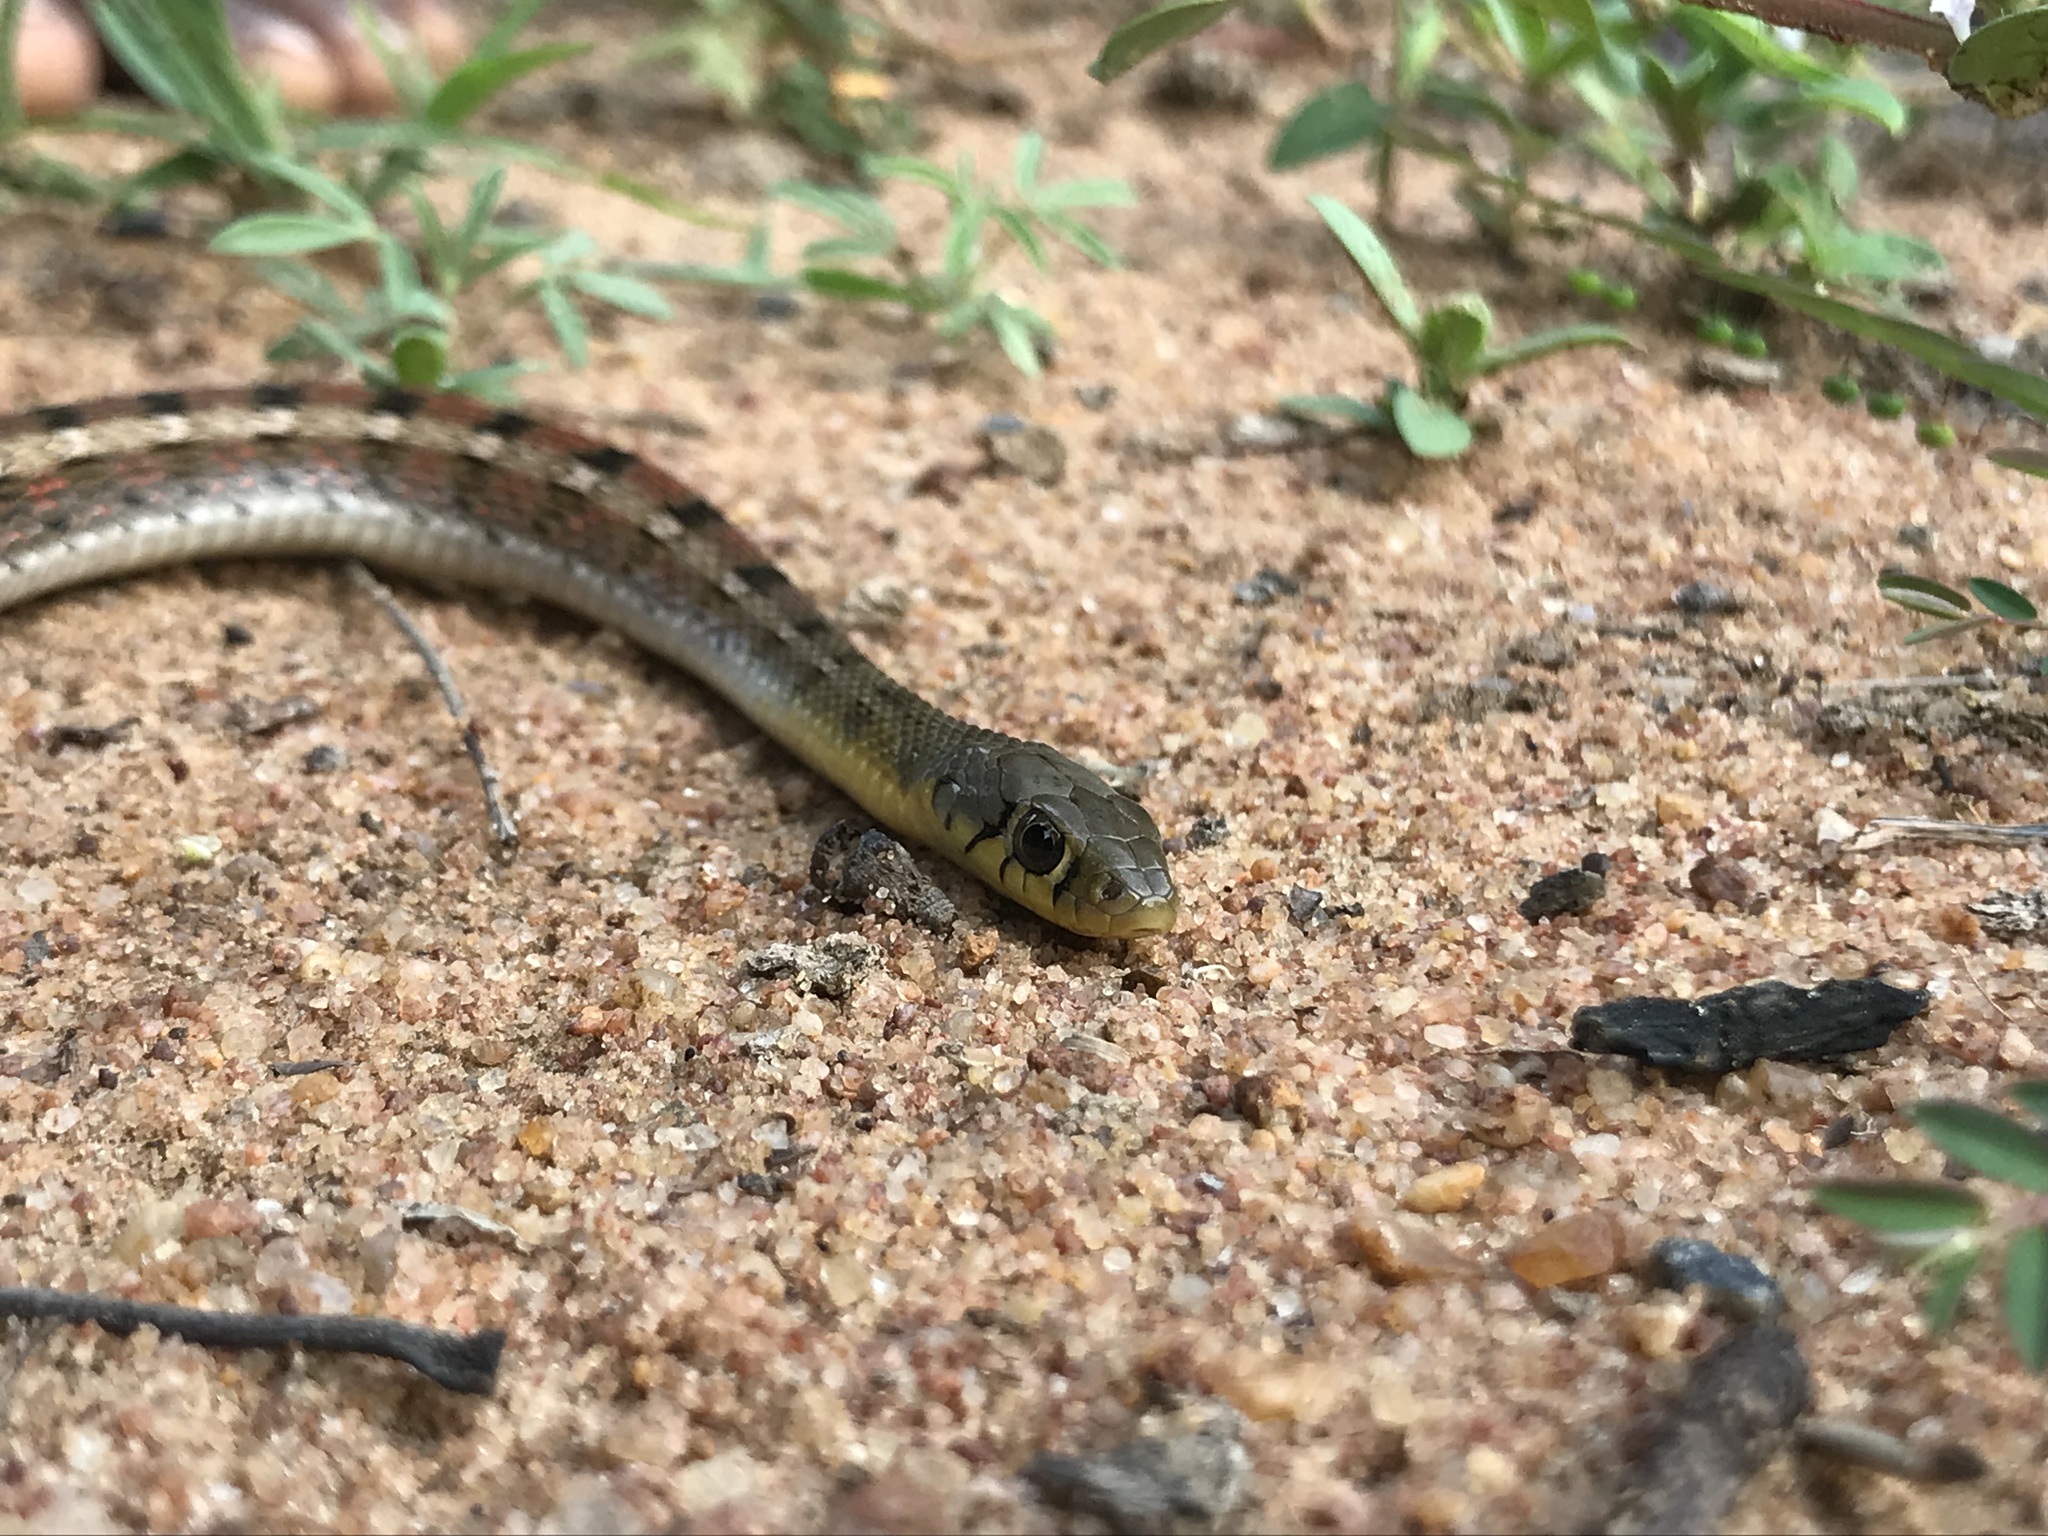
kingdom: Animalia
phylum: Chordata
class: Squamata
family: Colubridae
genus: Amphiesma
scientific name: Amphiesma stolatum
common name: Buff striped keelback
